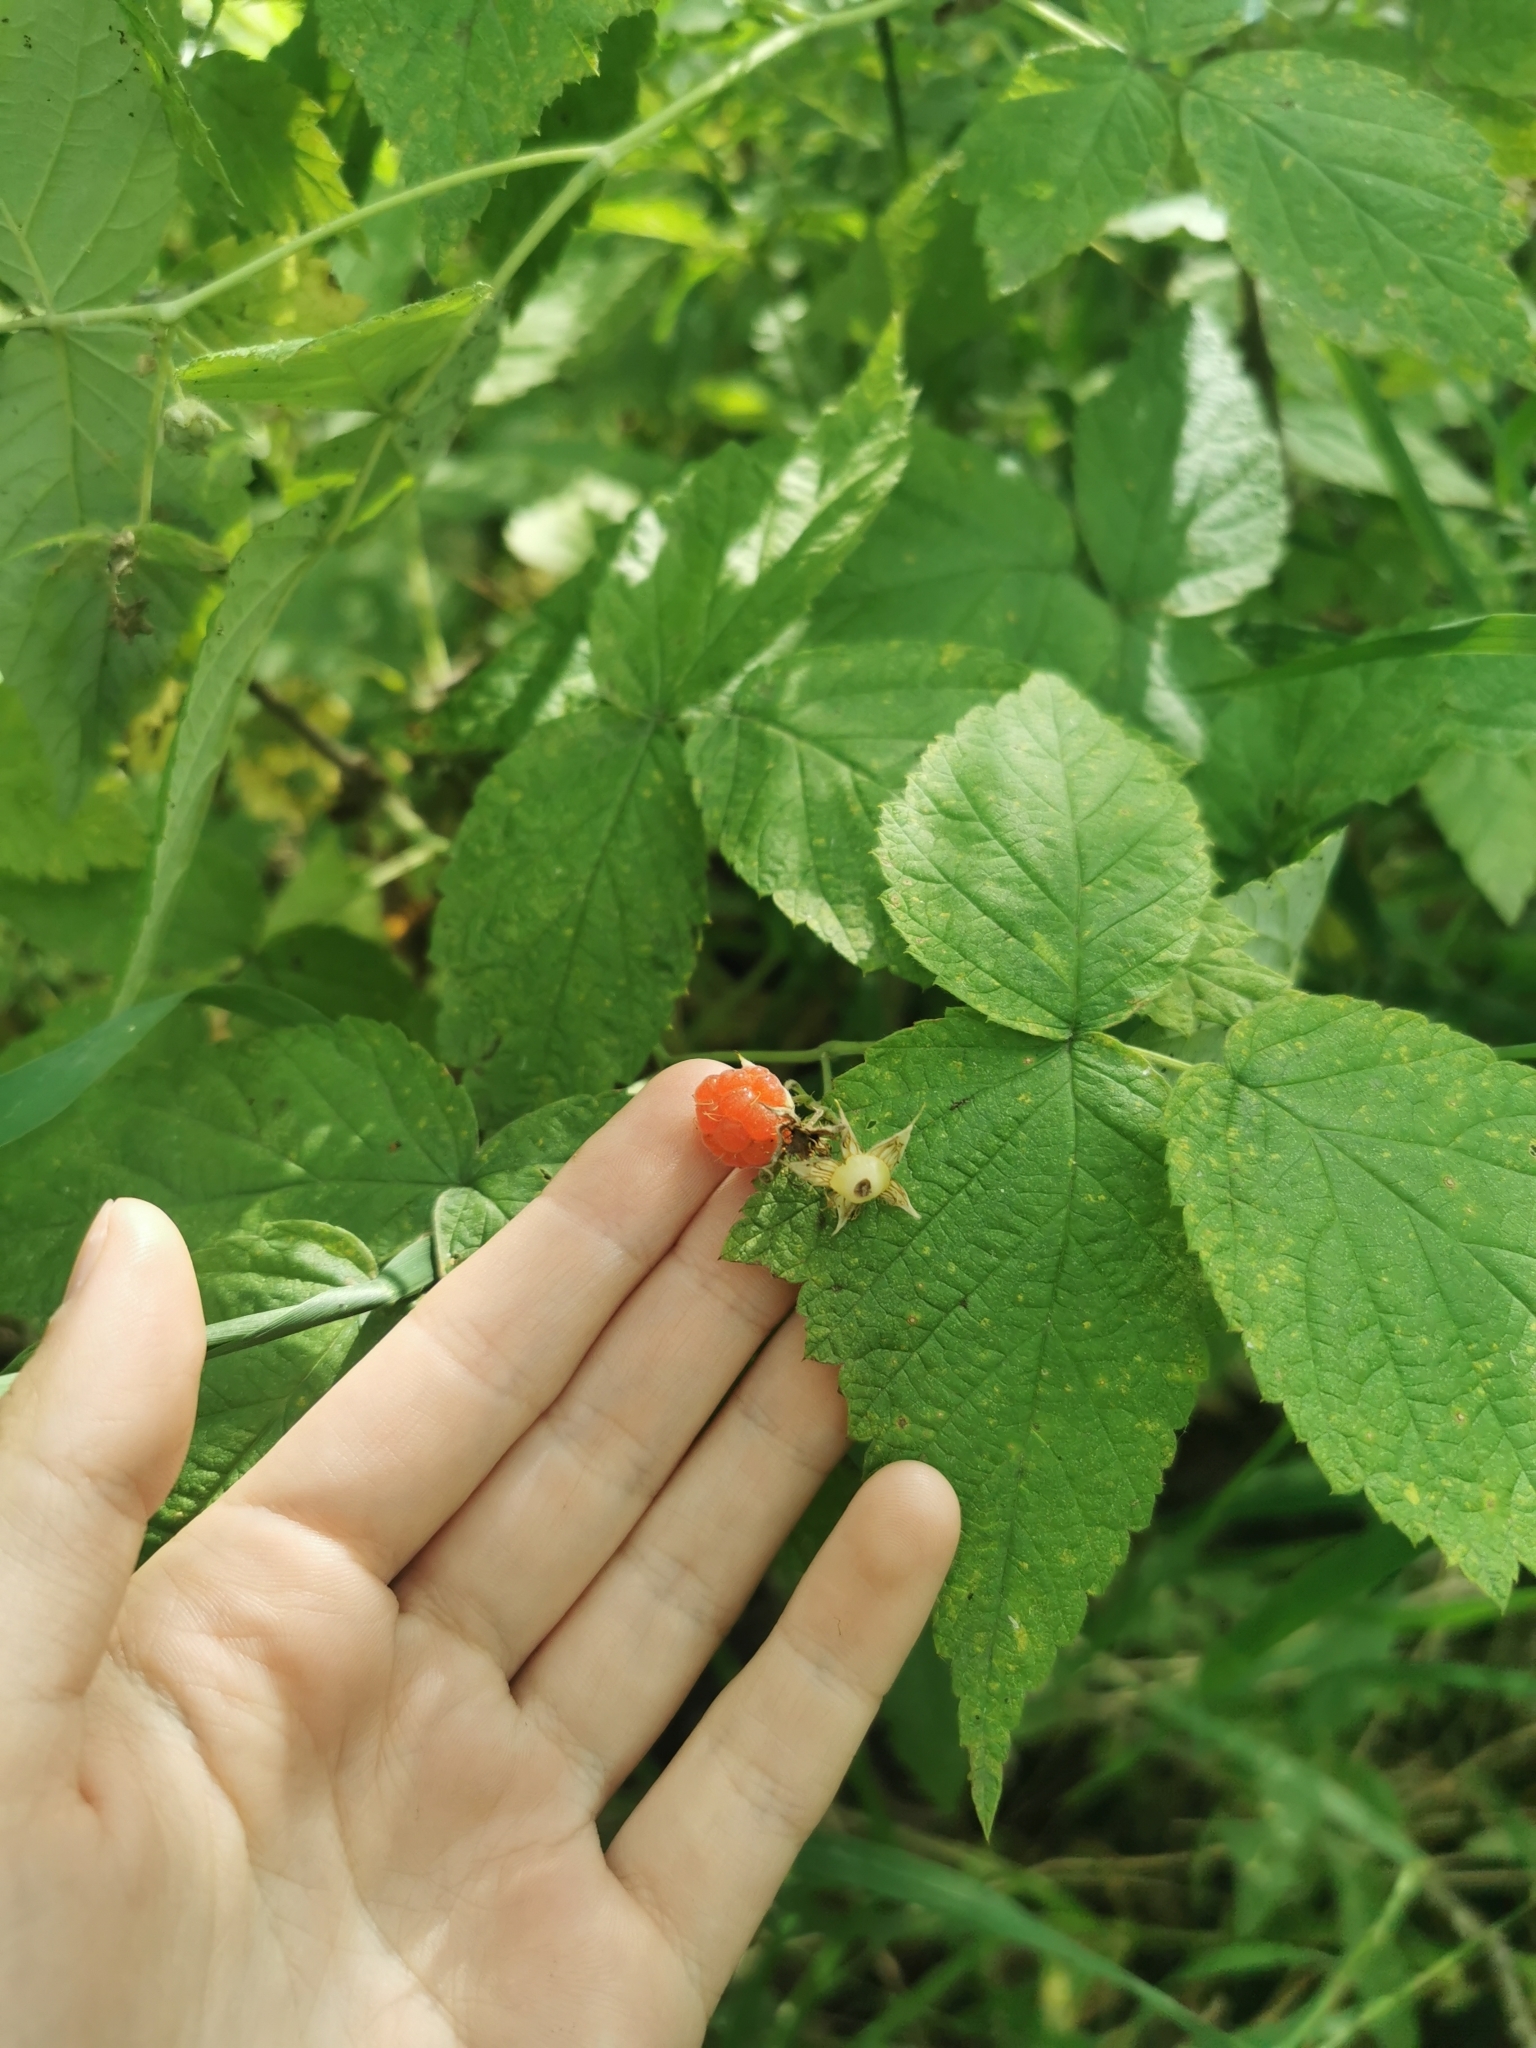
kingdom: Plantae
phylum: Tracheophyta
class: Magnoliopsida
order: Rosales
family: Rosaceae
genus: Rubus
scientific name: Rubus sachalinensis
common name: Red raspberry
